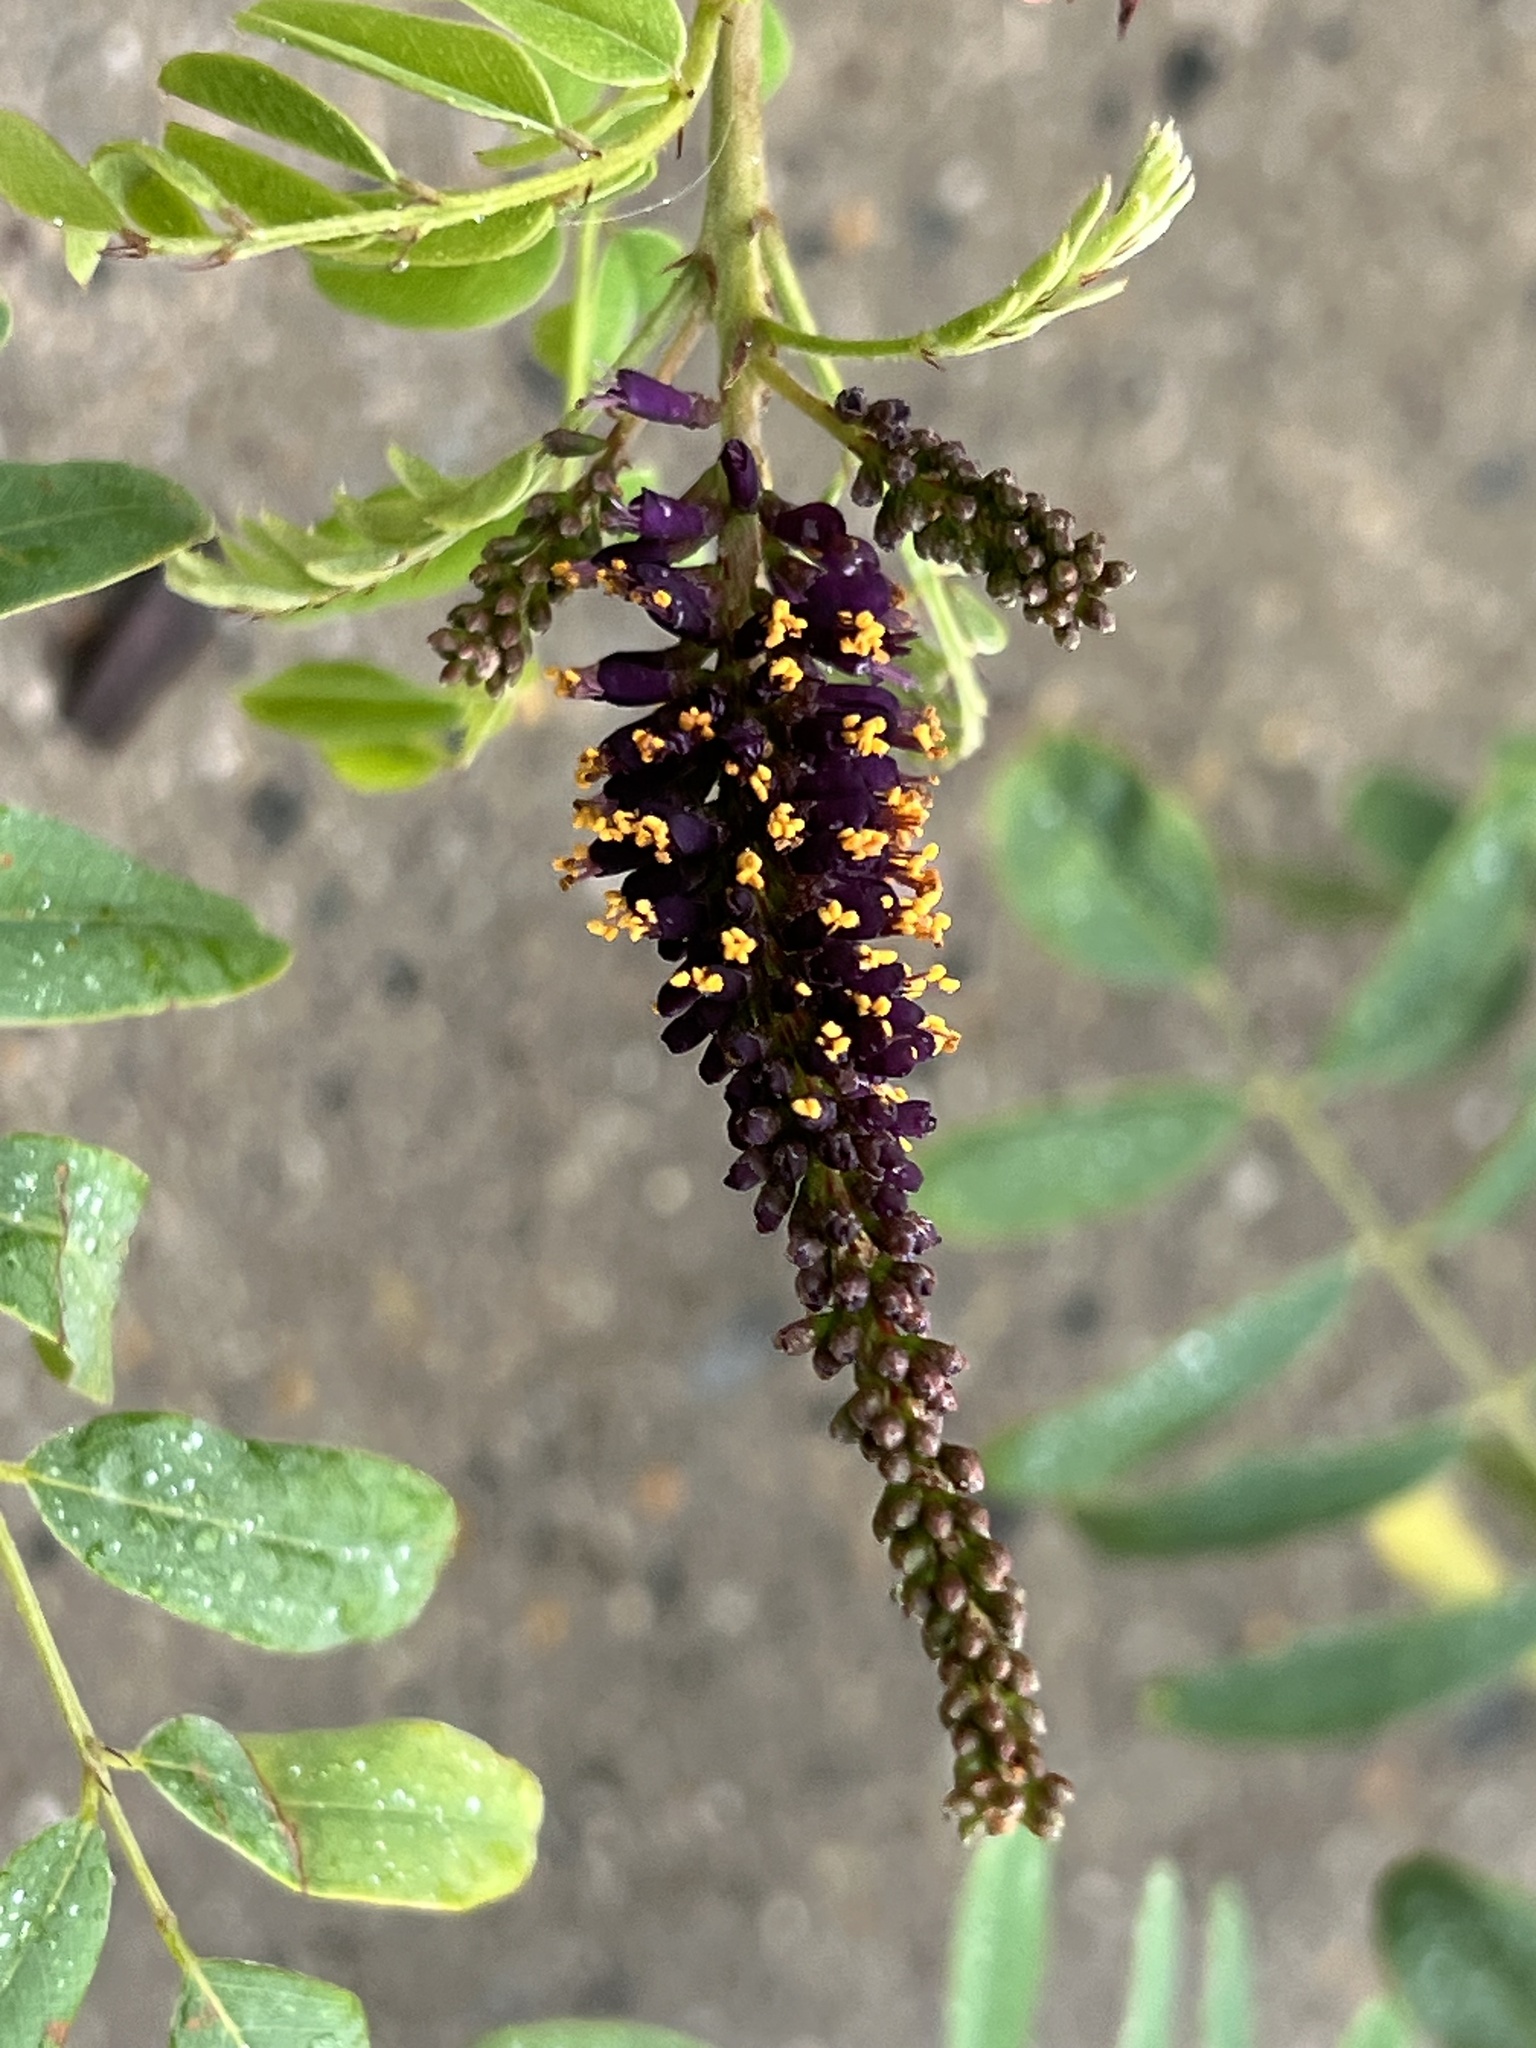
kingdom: Plantae
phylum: Tracheophyta
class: Magnoliopsida
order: Fabales
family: Fabaceae
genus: Amorpha
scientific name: Amorpha fruticosa
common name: False indigo
